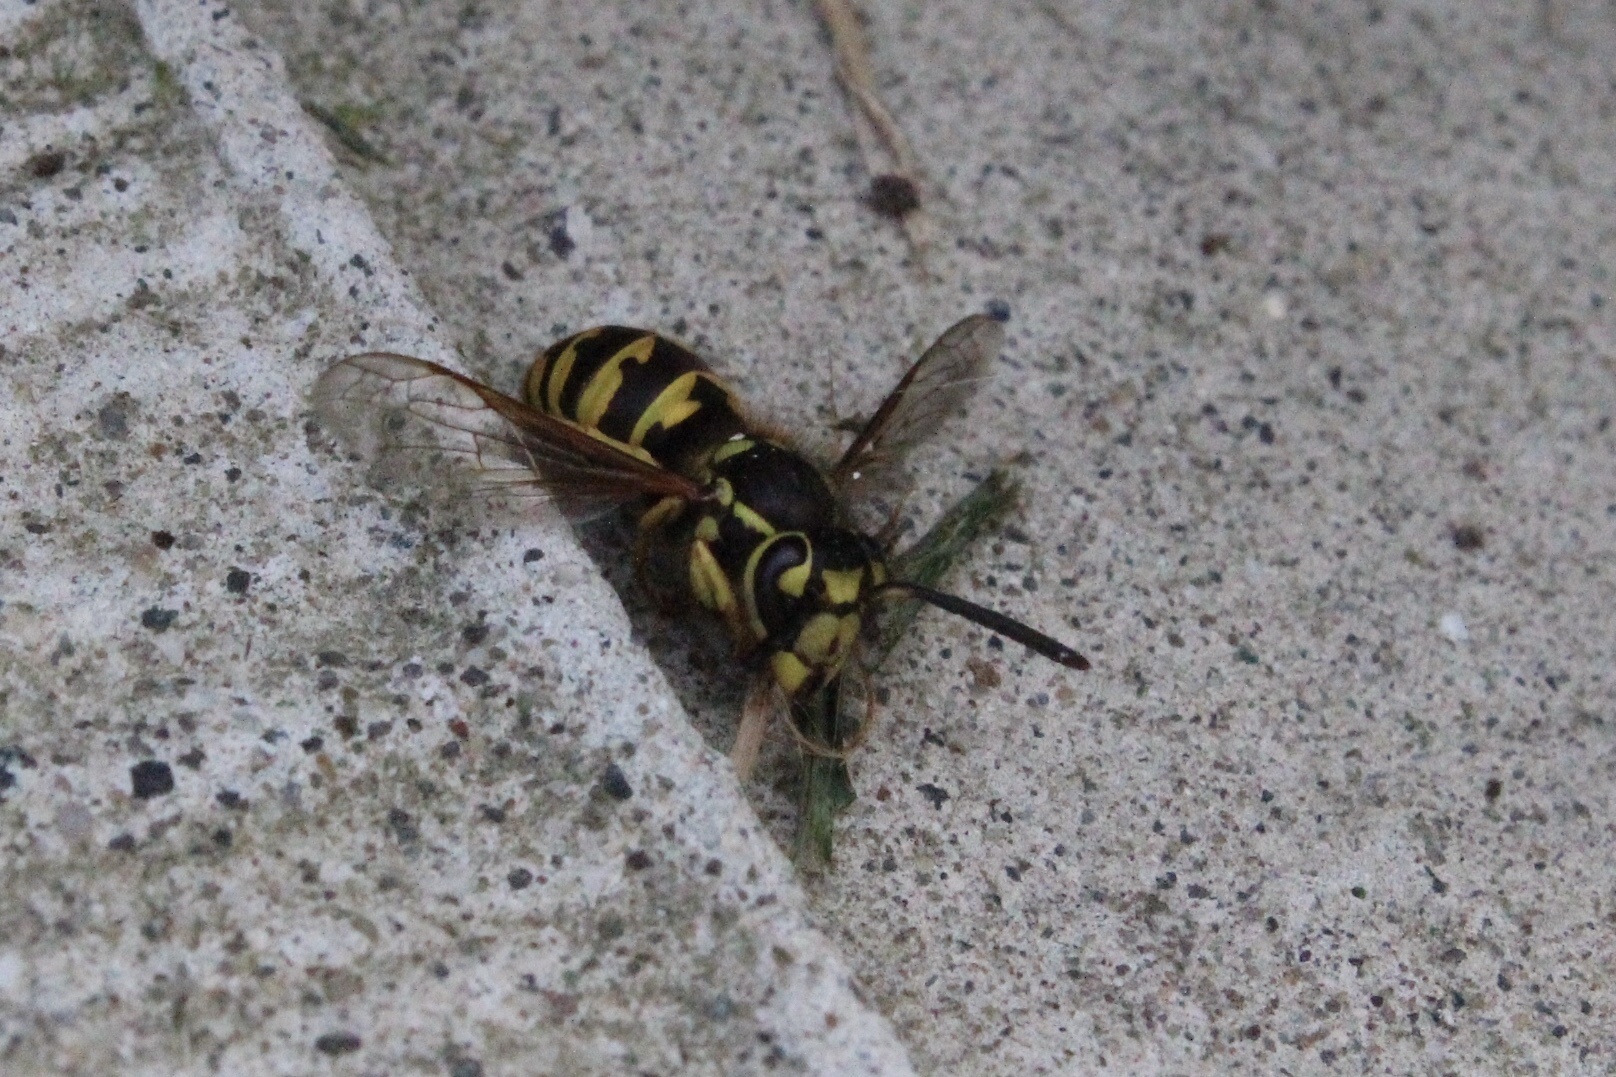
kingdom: Animalia
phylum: Arthropoda
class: Insecta
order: Hymenoptera
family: Vespidae
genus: Vespula
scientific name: Vespula pensylvanica
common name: Western yellowjacket
